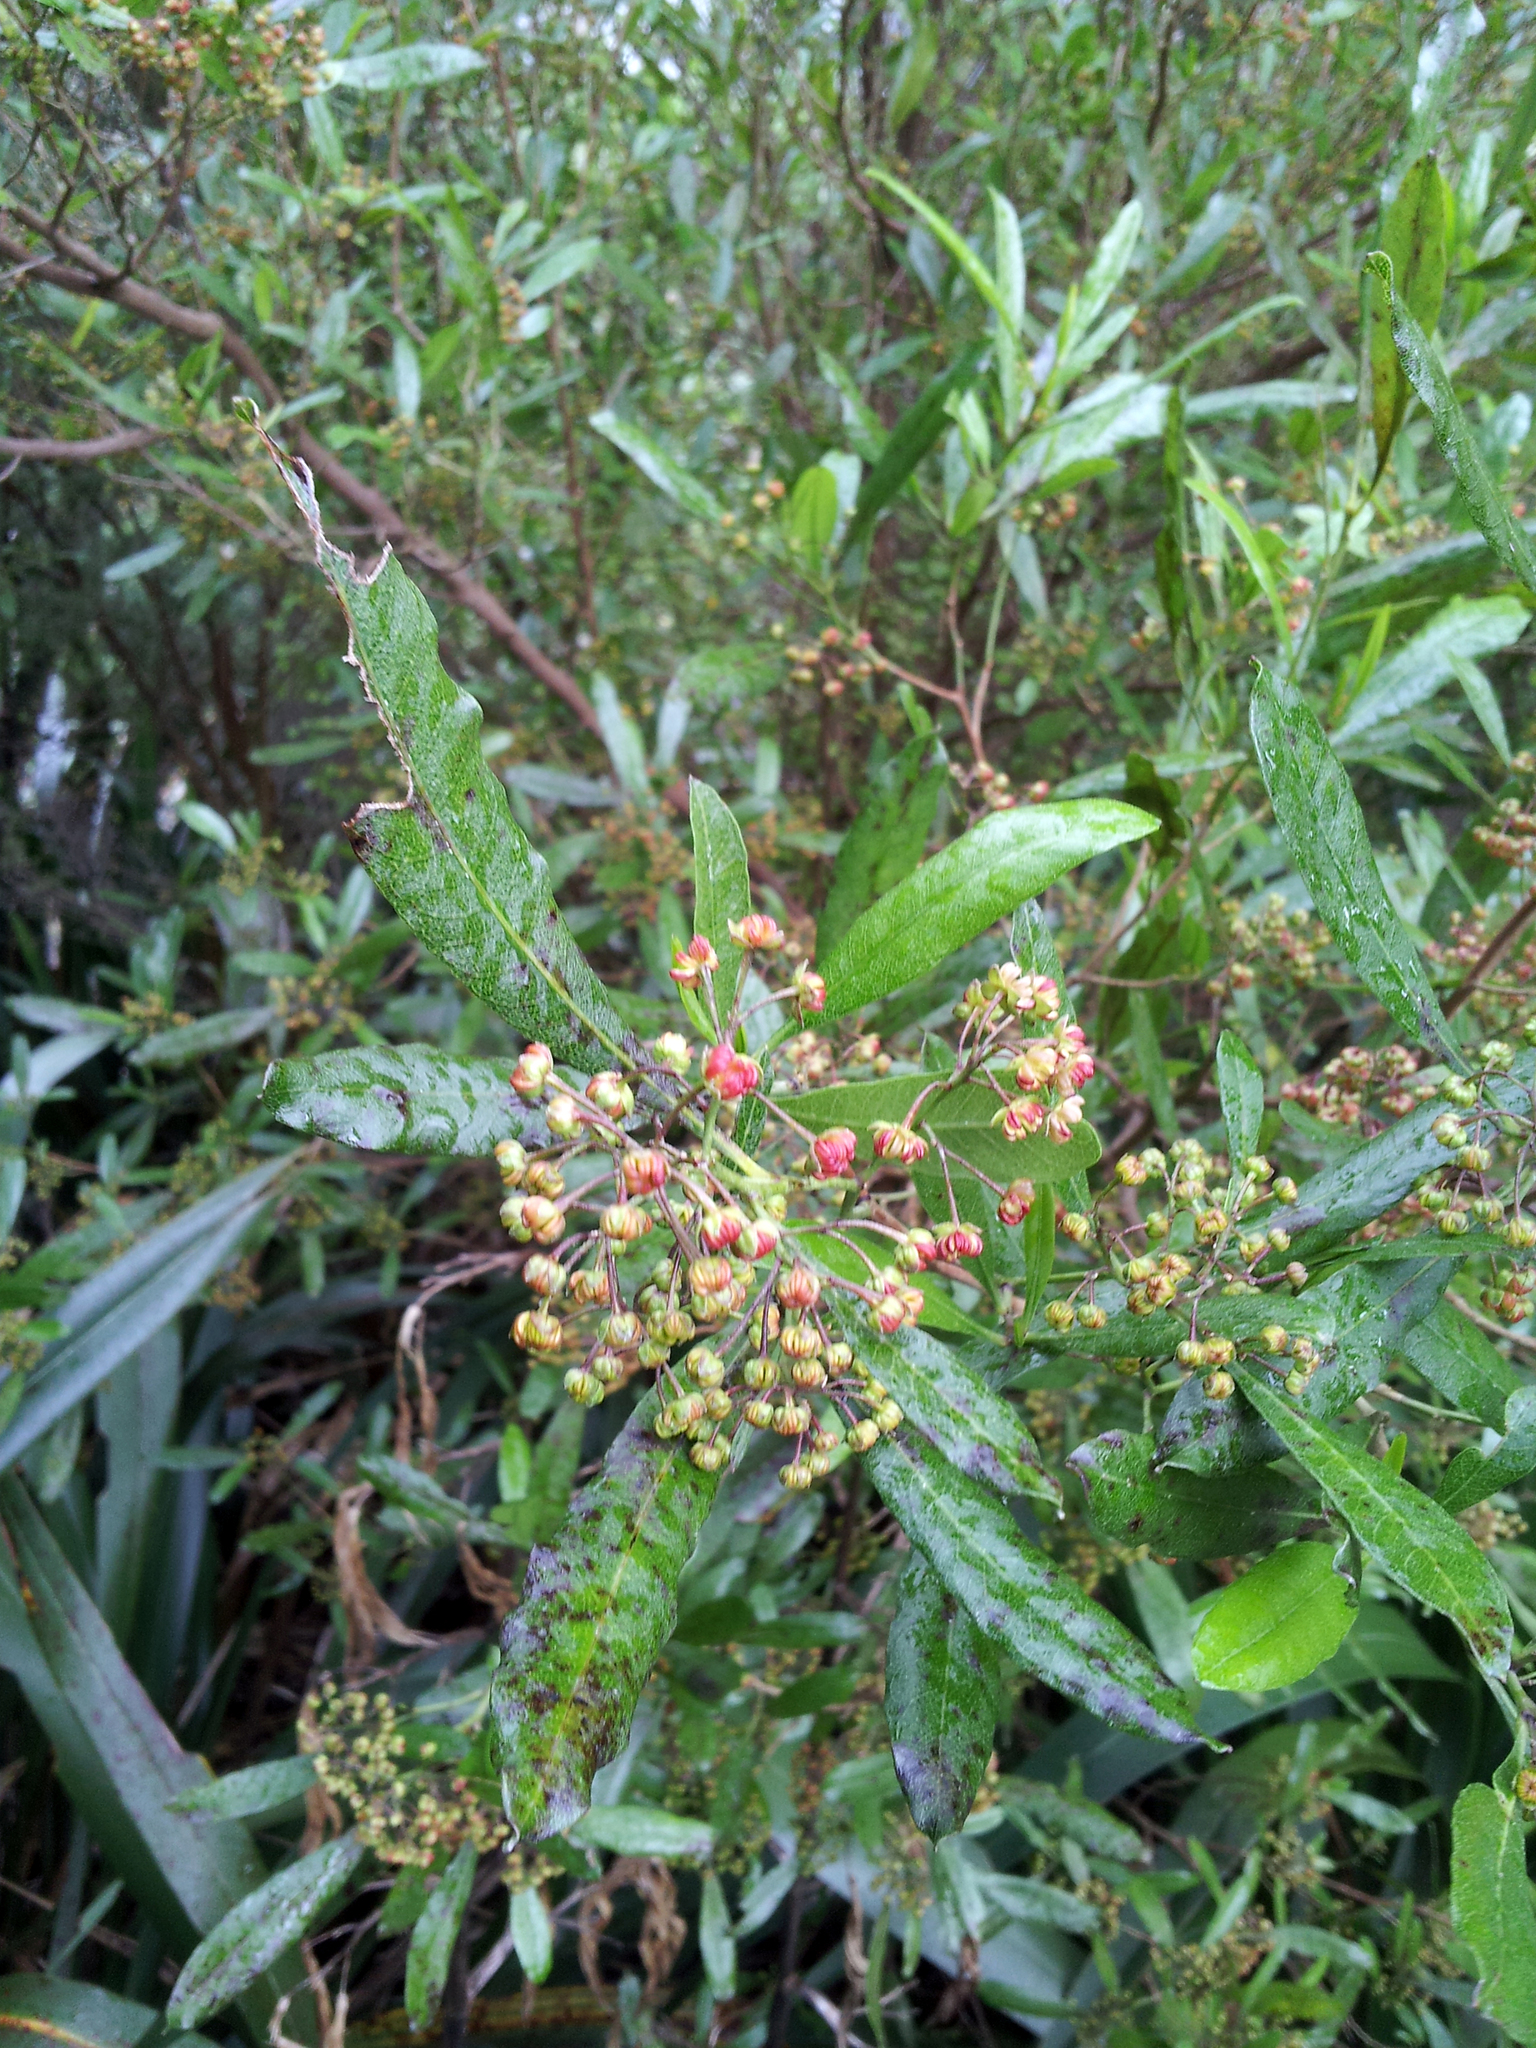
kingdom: Plantae
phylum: Tracheophyta
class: Magnoliopsida
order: Sapindales
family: Sapindaceae
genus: Dodonaea
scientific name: Dodonaea viscosa
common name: Hopbush
